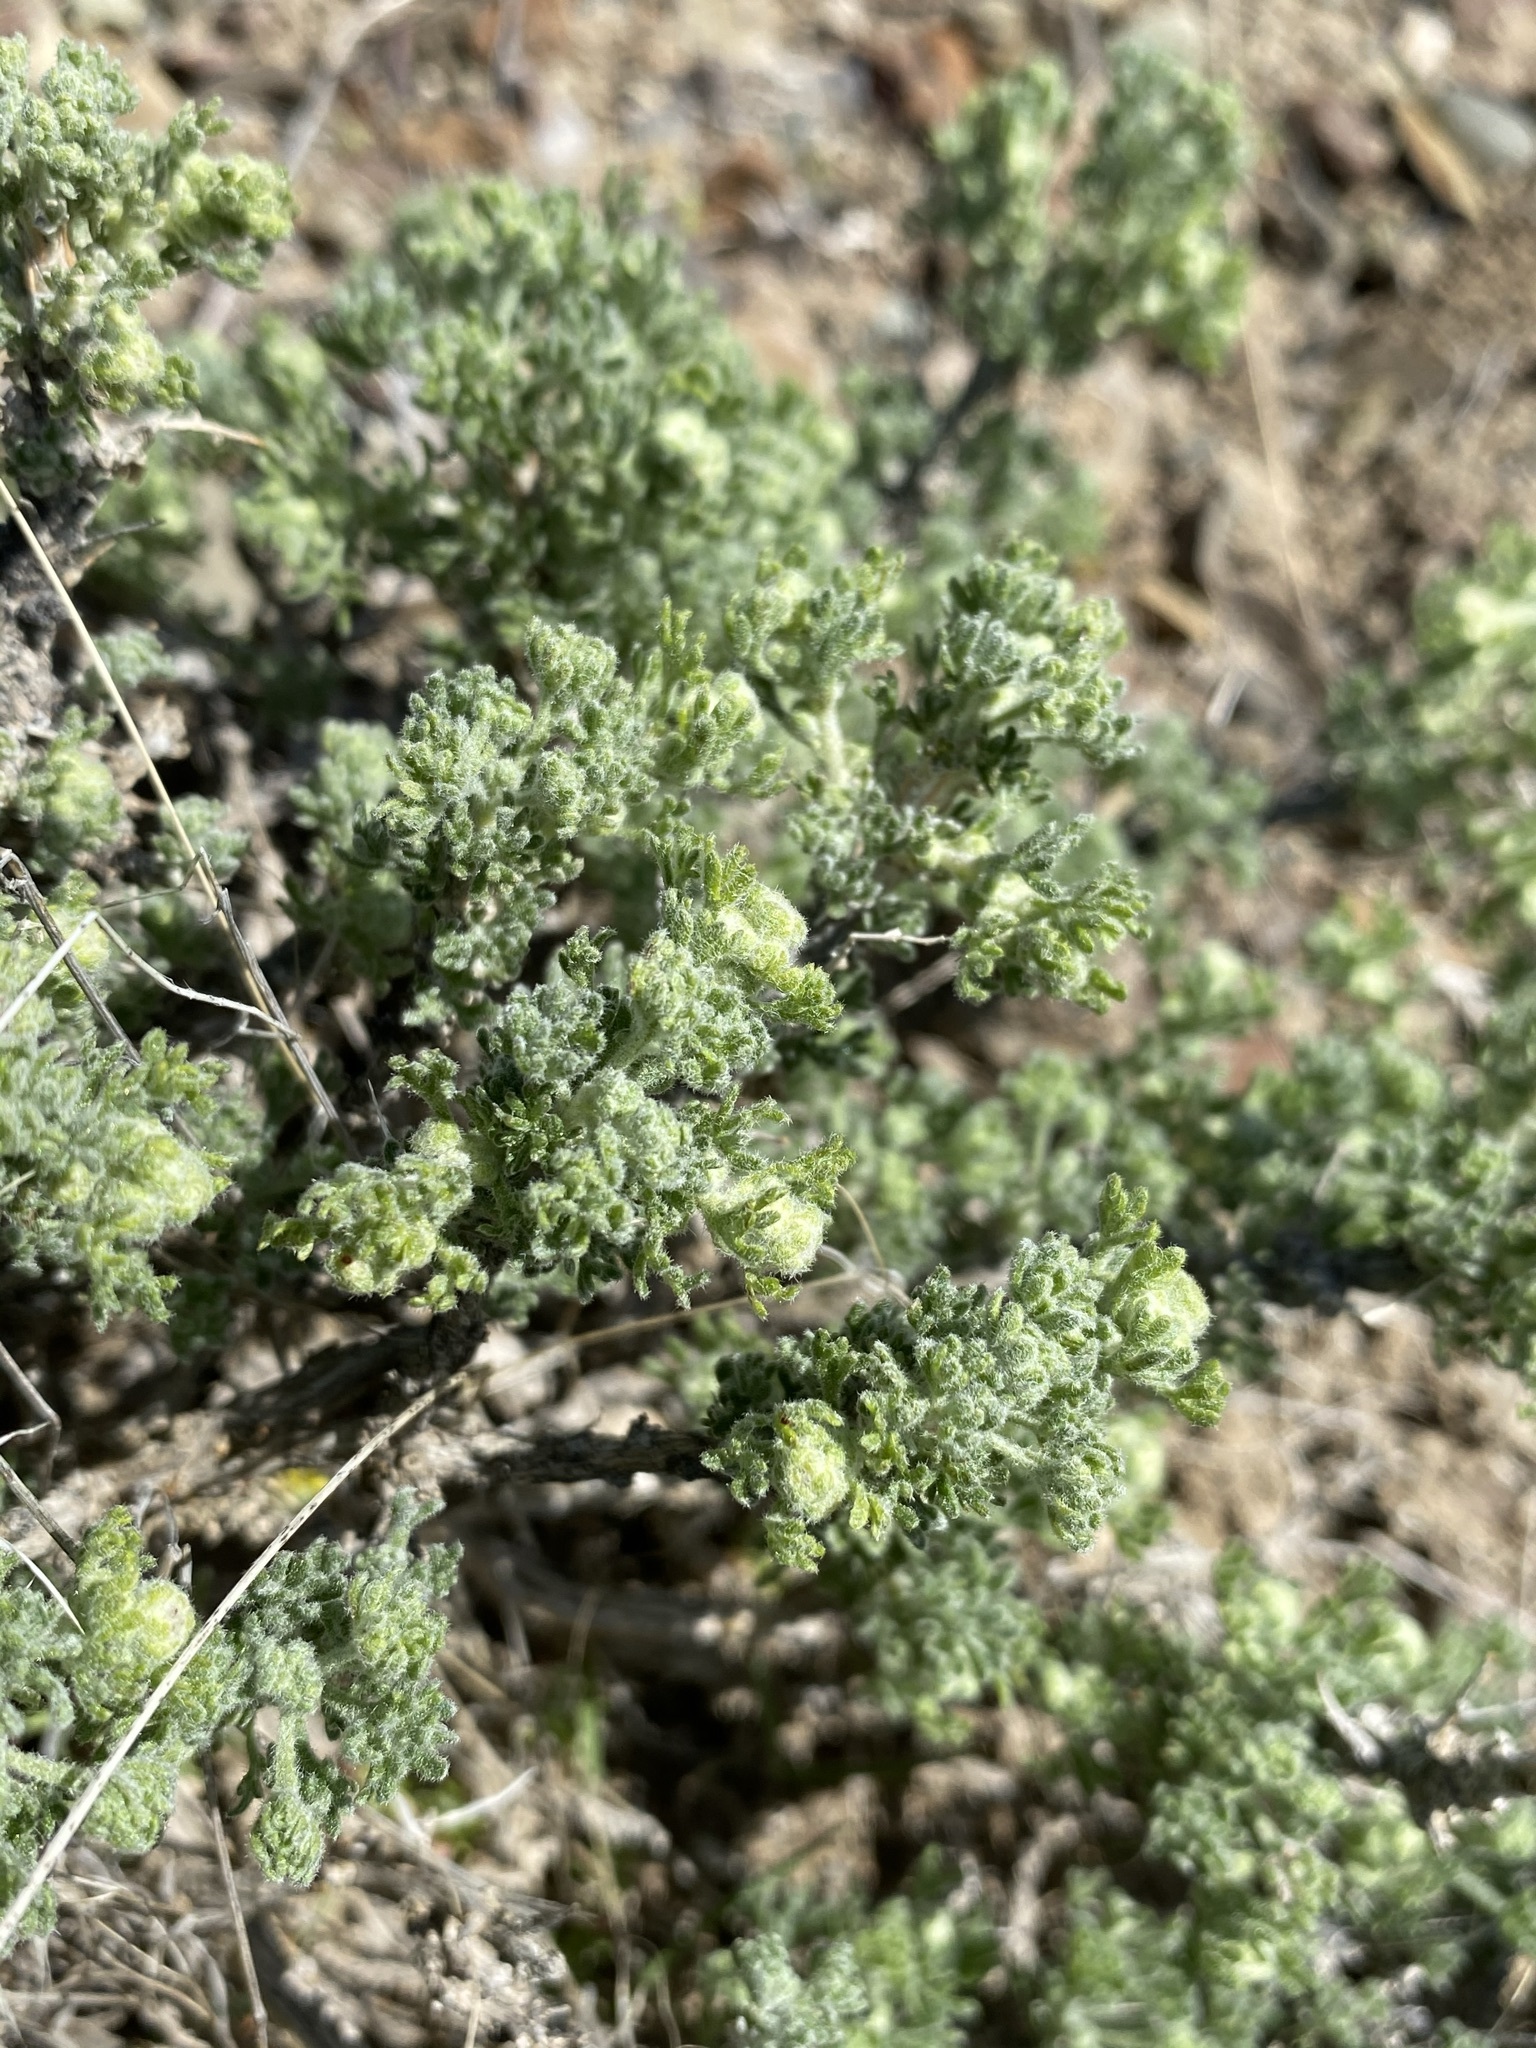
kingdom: Plantae
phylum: Tracheophyta
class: Magnoliopsida
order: Asterales
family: Asteraceae
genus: Artemisia
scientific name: Artemisia spinescens
